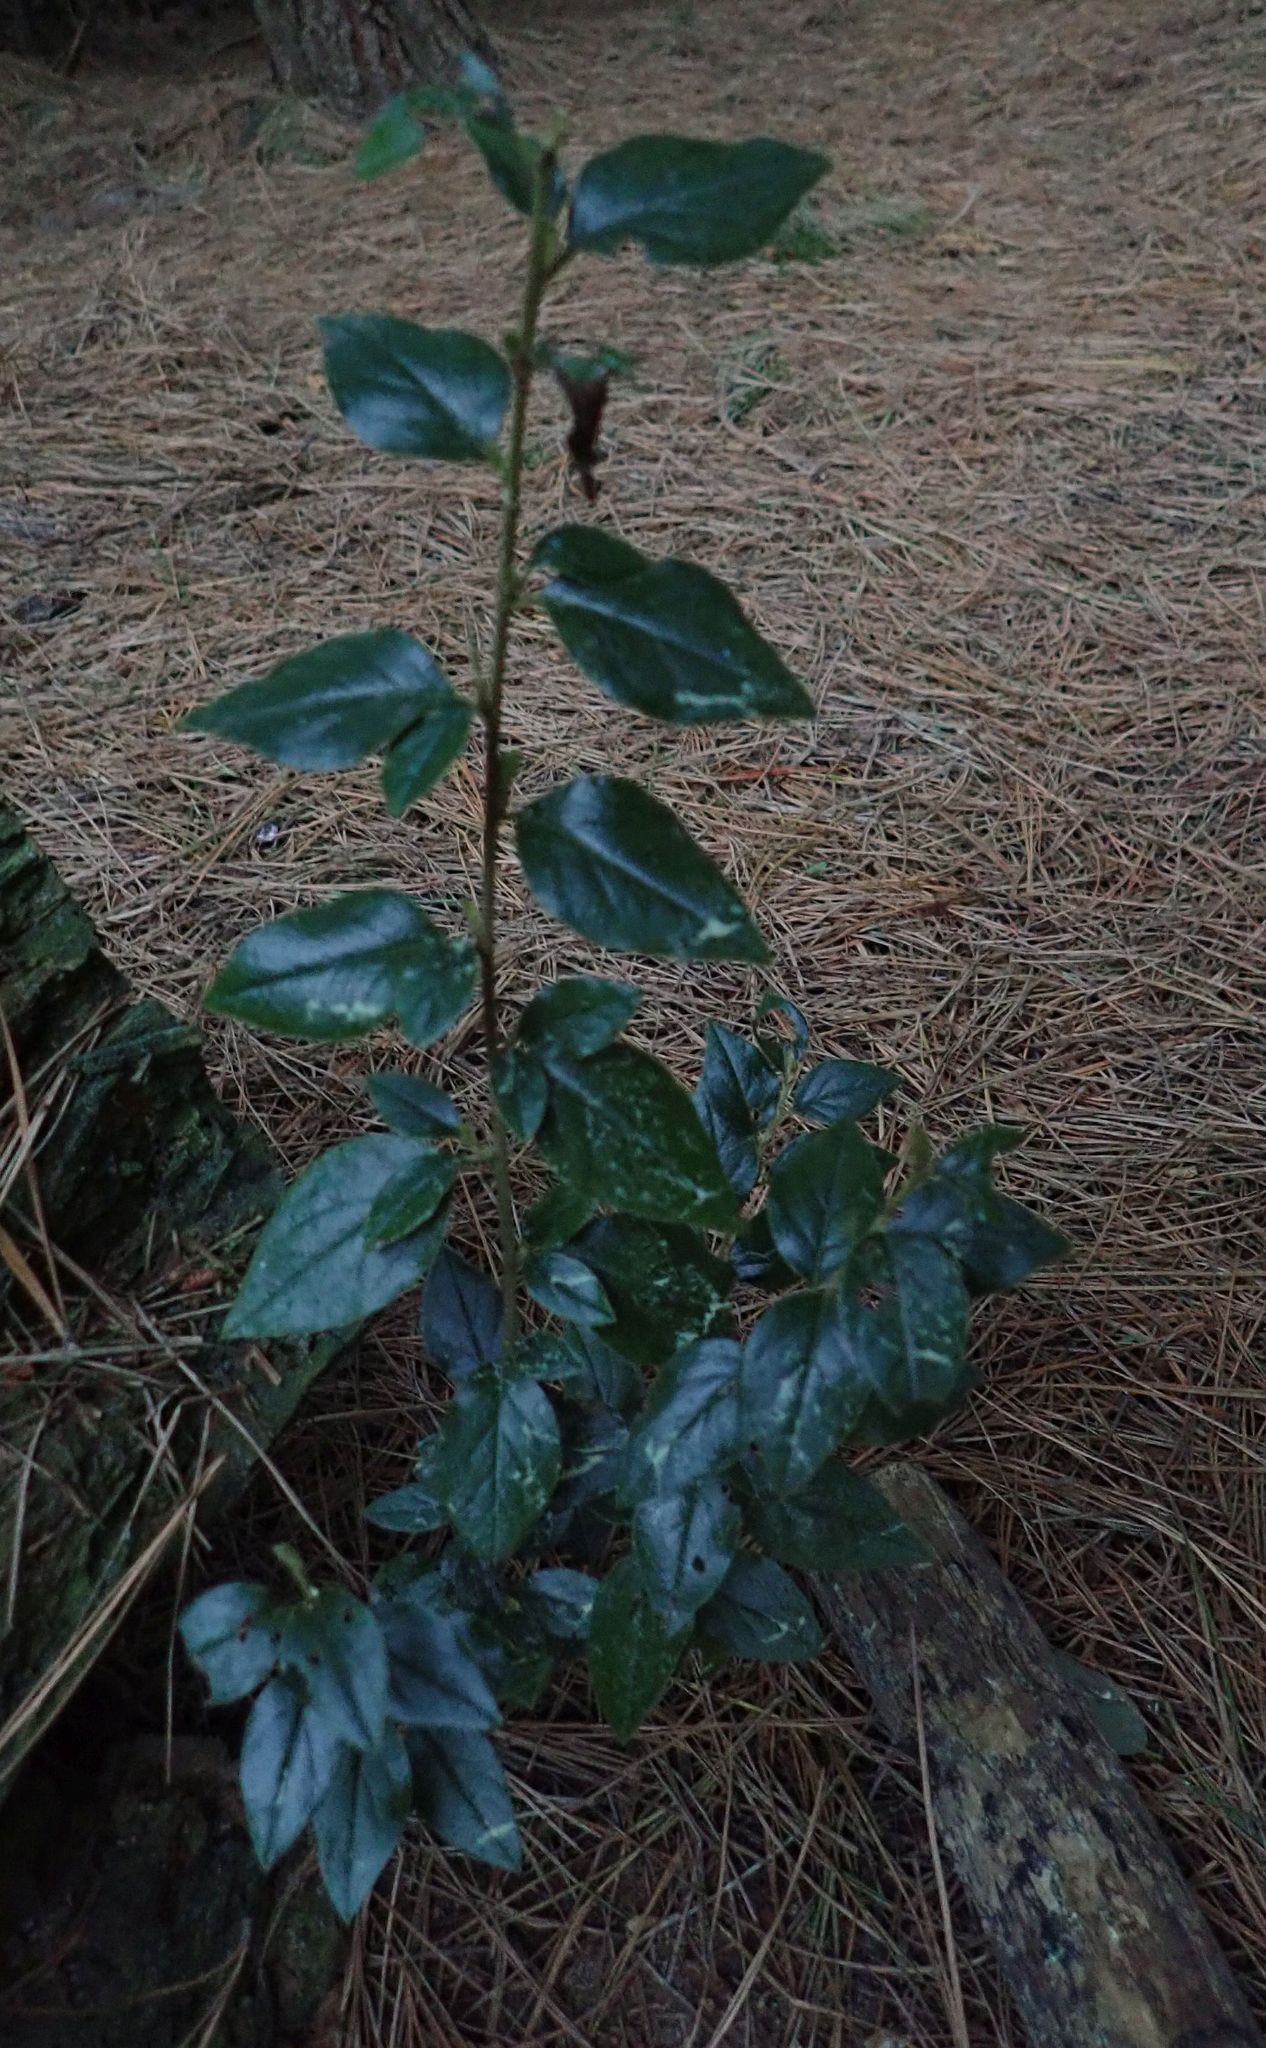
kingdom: Plantae
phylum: Tracheophyta
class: Magnoliopsida
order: Rosales
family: Rosaceae
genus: Cotoneaster
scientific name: Cotoneaster simonsii
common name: Himalayan cotoneaster
